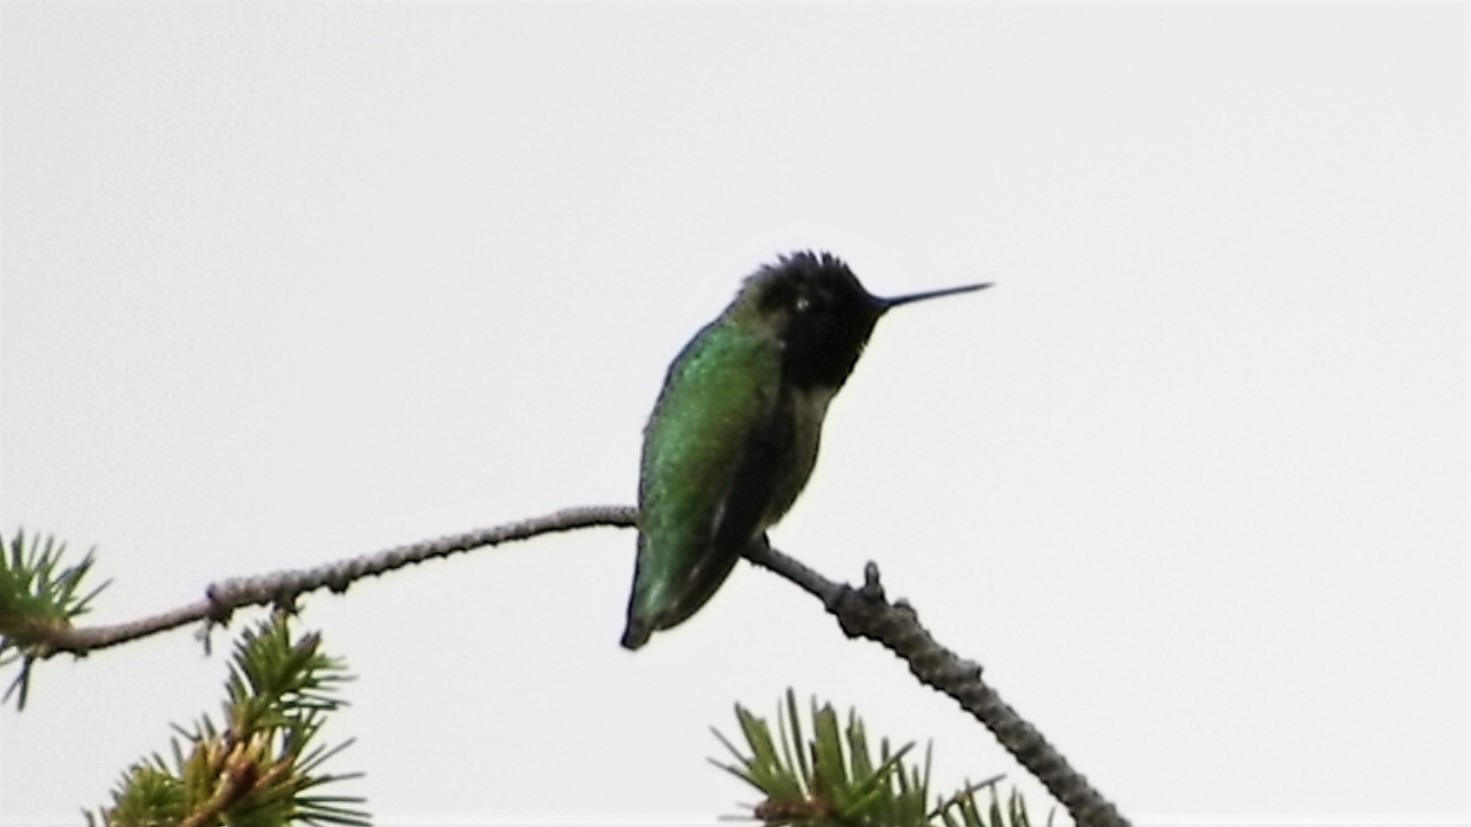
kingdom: Animalia
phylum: Chordata
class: Aves
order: Apodiformes
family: Trochilidae
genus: Calypte
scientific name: Calypte anna
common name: Anna's hummingbird
